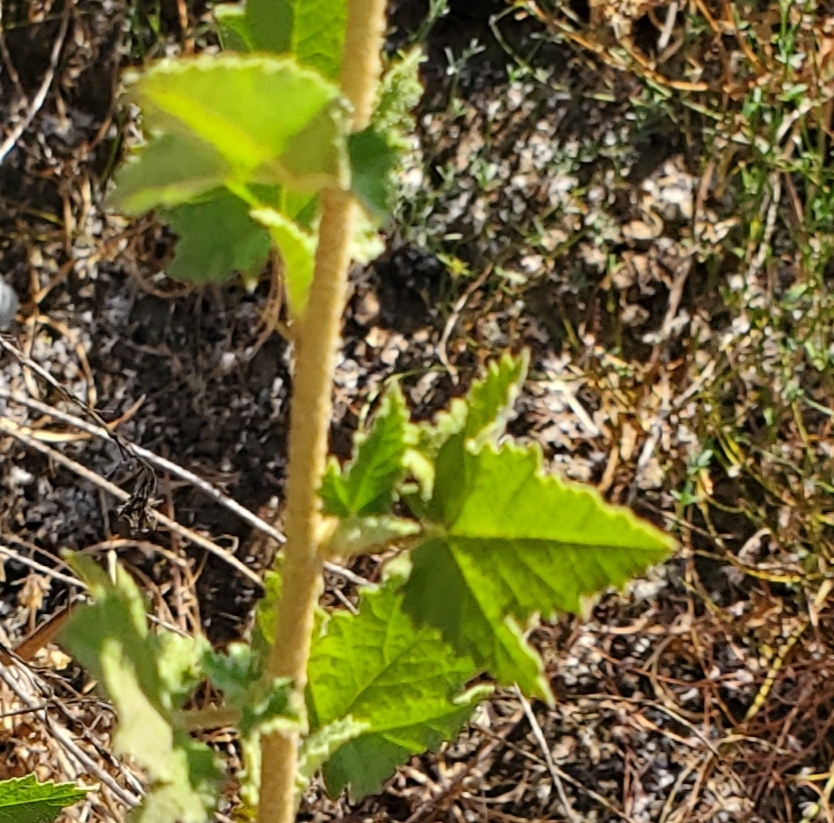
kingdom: Plantae
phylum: Tracheophyta
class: Magnoliopsida
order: Malvales
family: Malvaceae
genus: Malacothamnus
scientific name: Malacothamnus fasciculatus
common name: Sant cruz island bush-mallow
